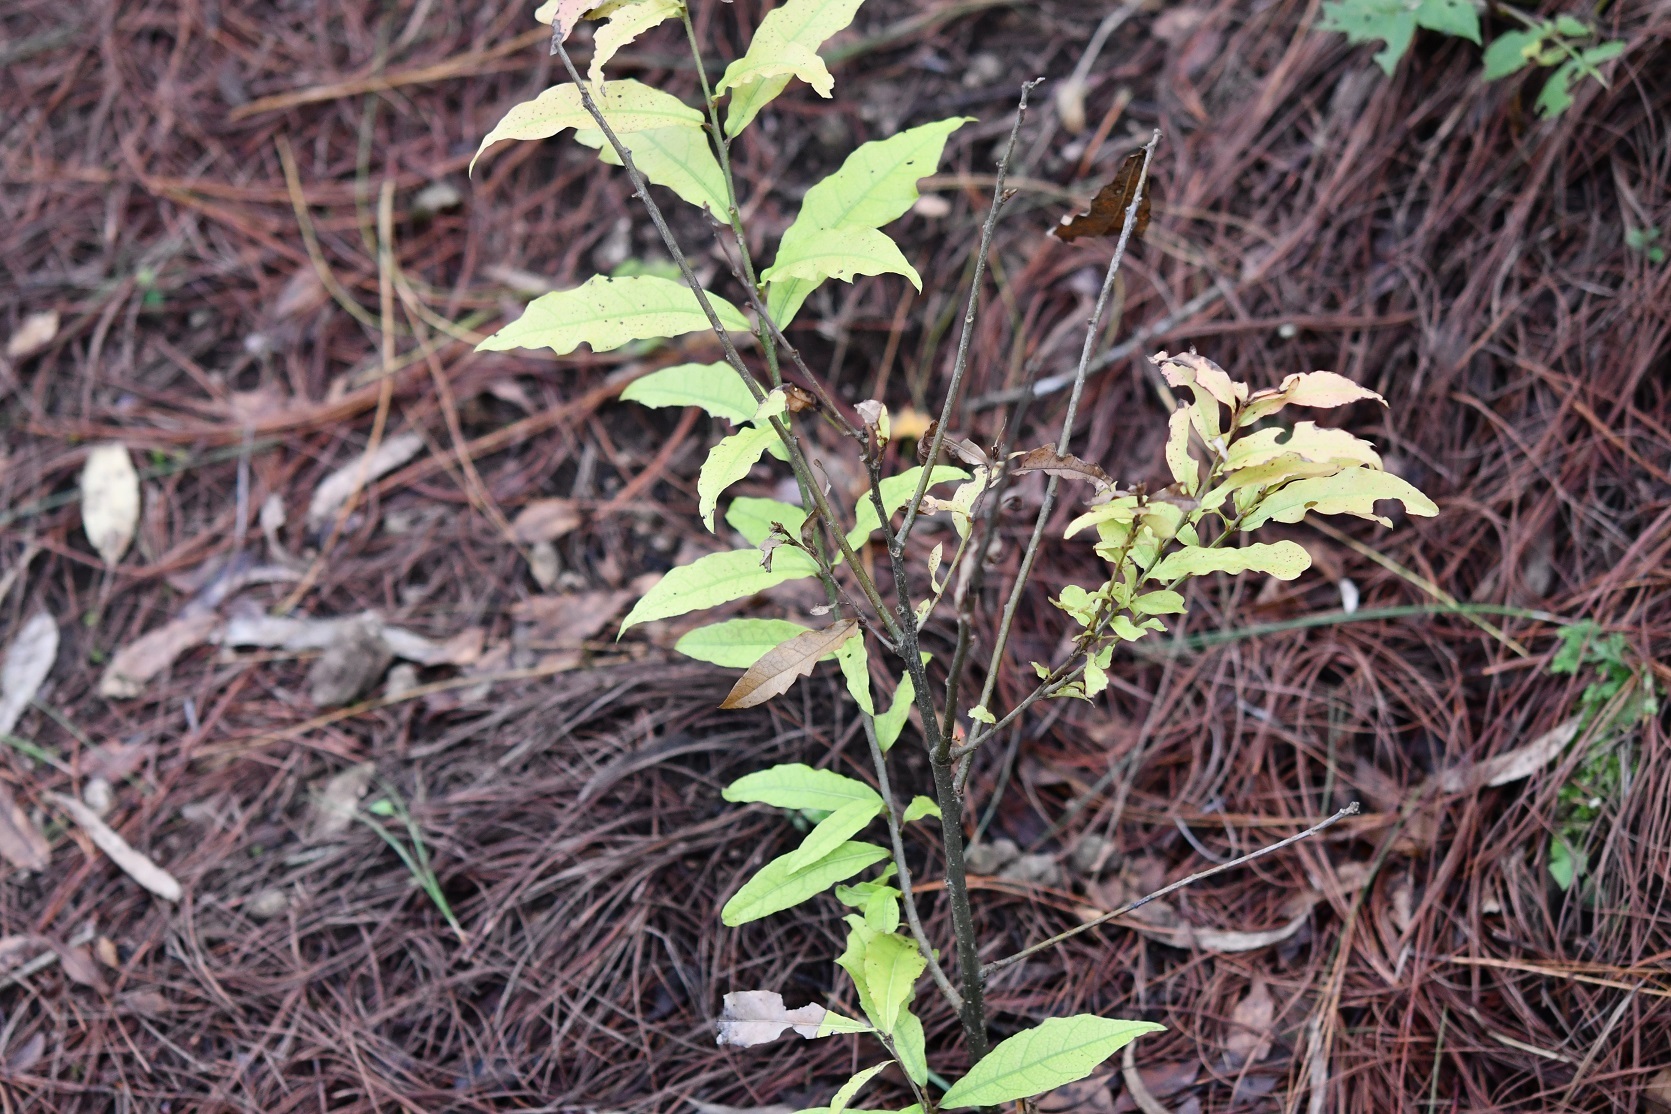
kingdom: Plantae
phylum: Tracheophyta
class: Magnoliopsida
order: Fagales
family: Fagaceae
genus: Quercus
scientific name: Quercus laurina
